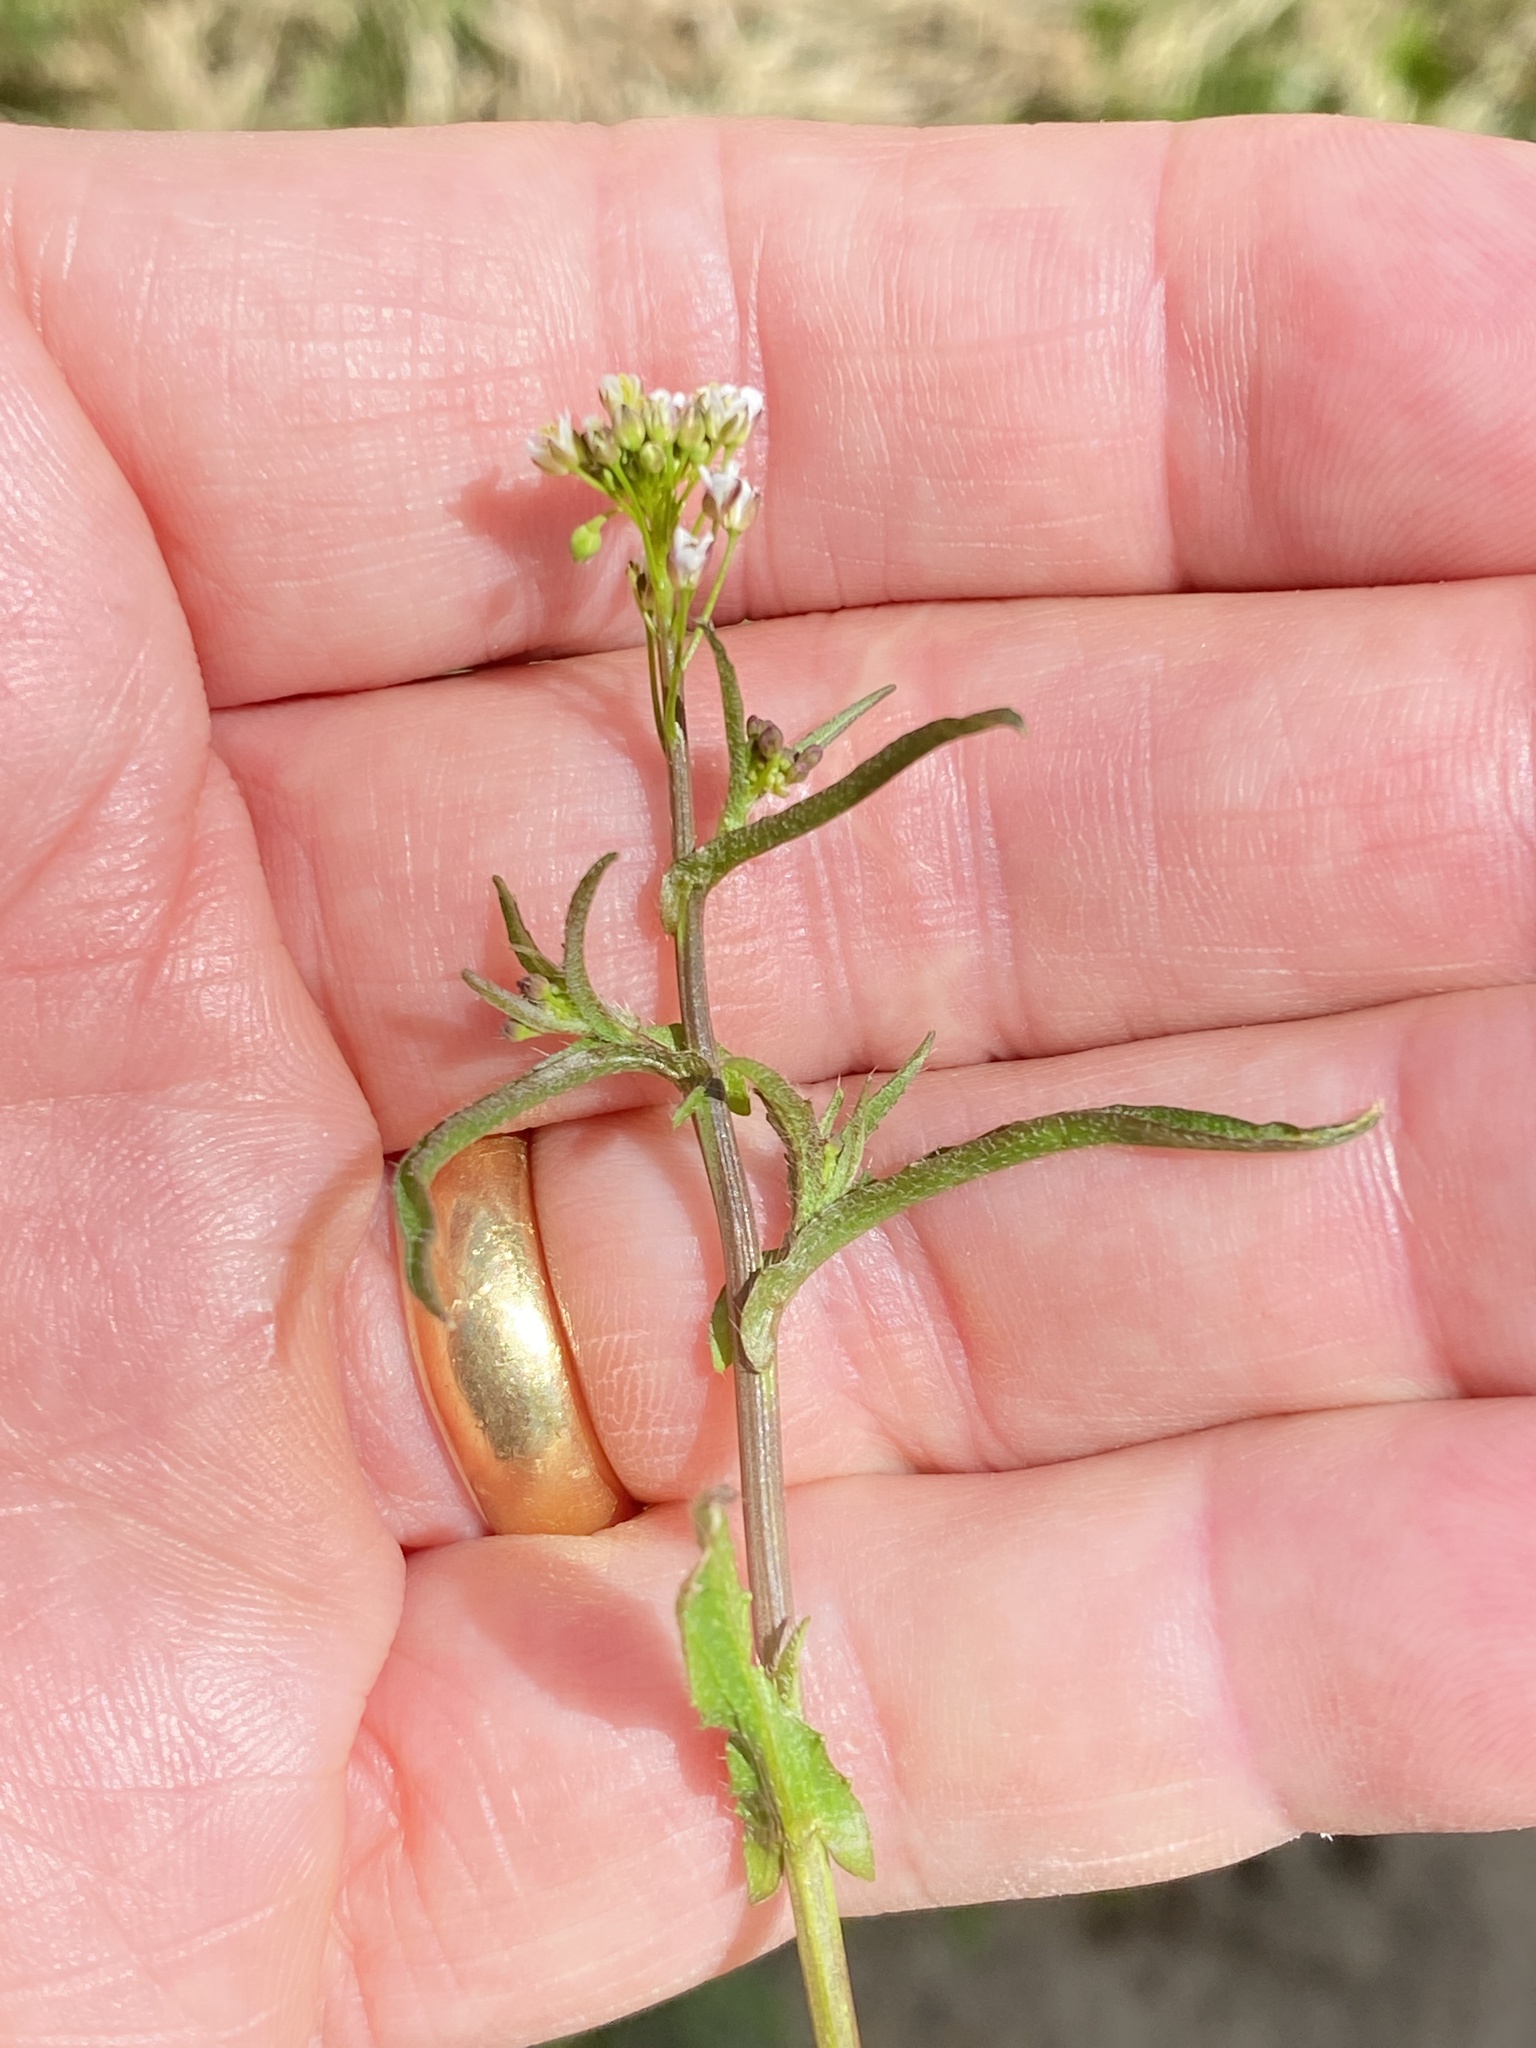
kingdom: Plantae
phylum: Tracheophyta
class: Magnoliopsida
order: Brassicales
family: Brassicaceae
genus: Capsella
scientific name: Capsella bursa-pastoris
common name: Shepherd's purse
